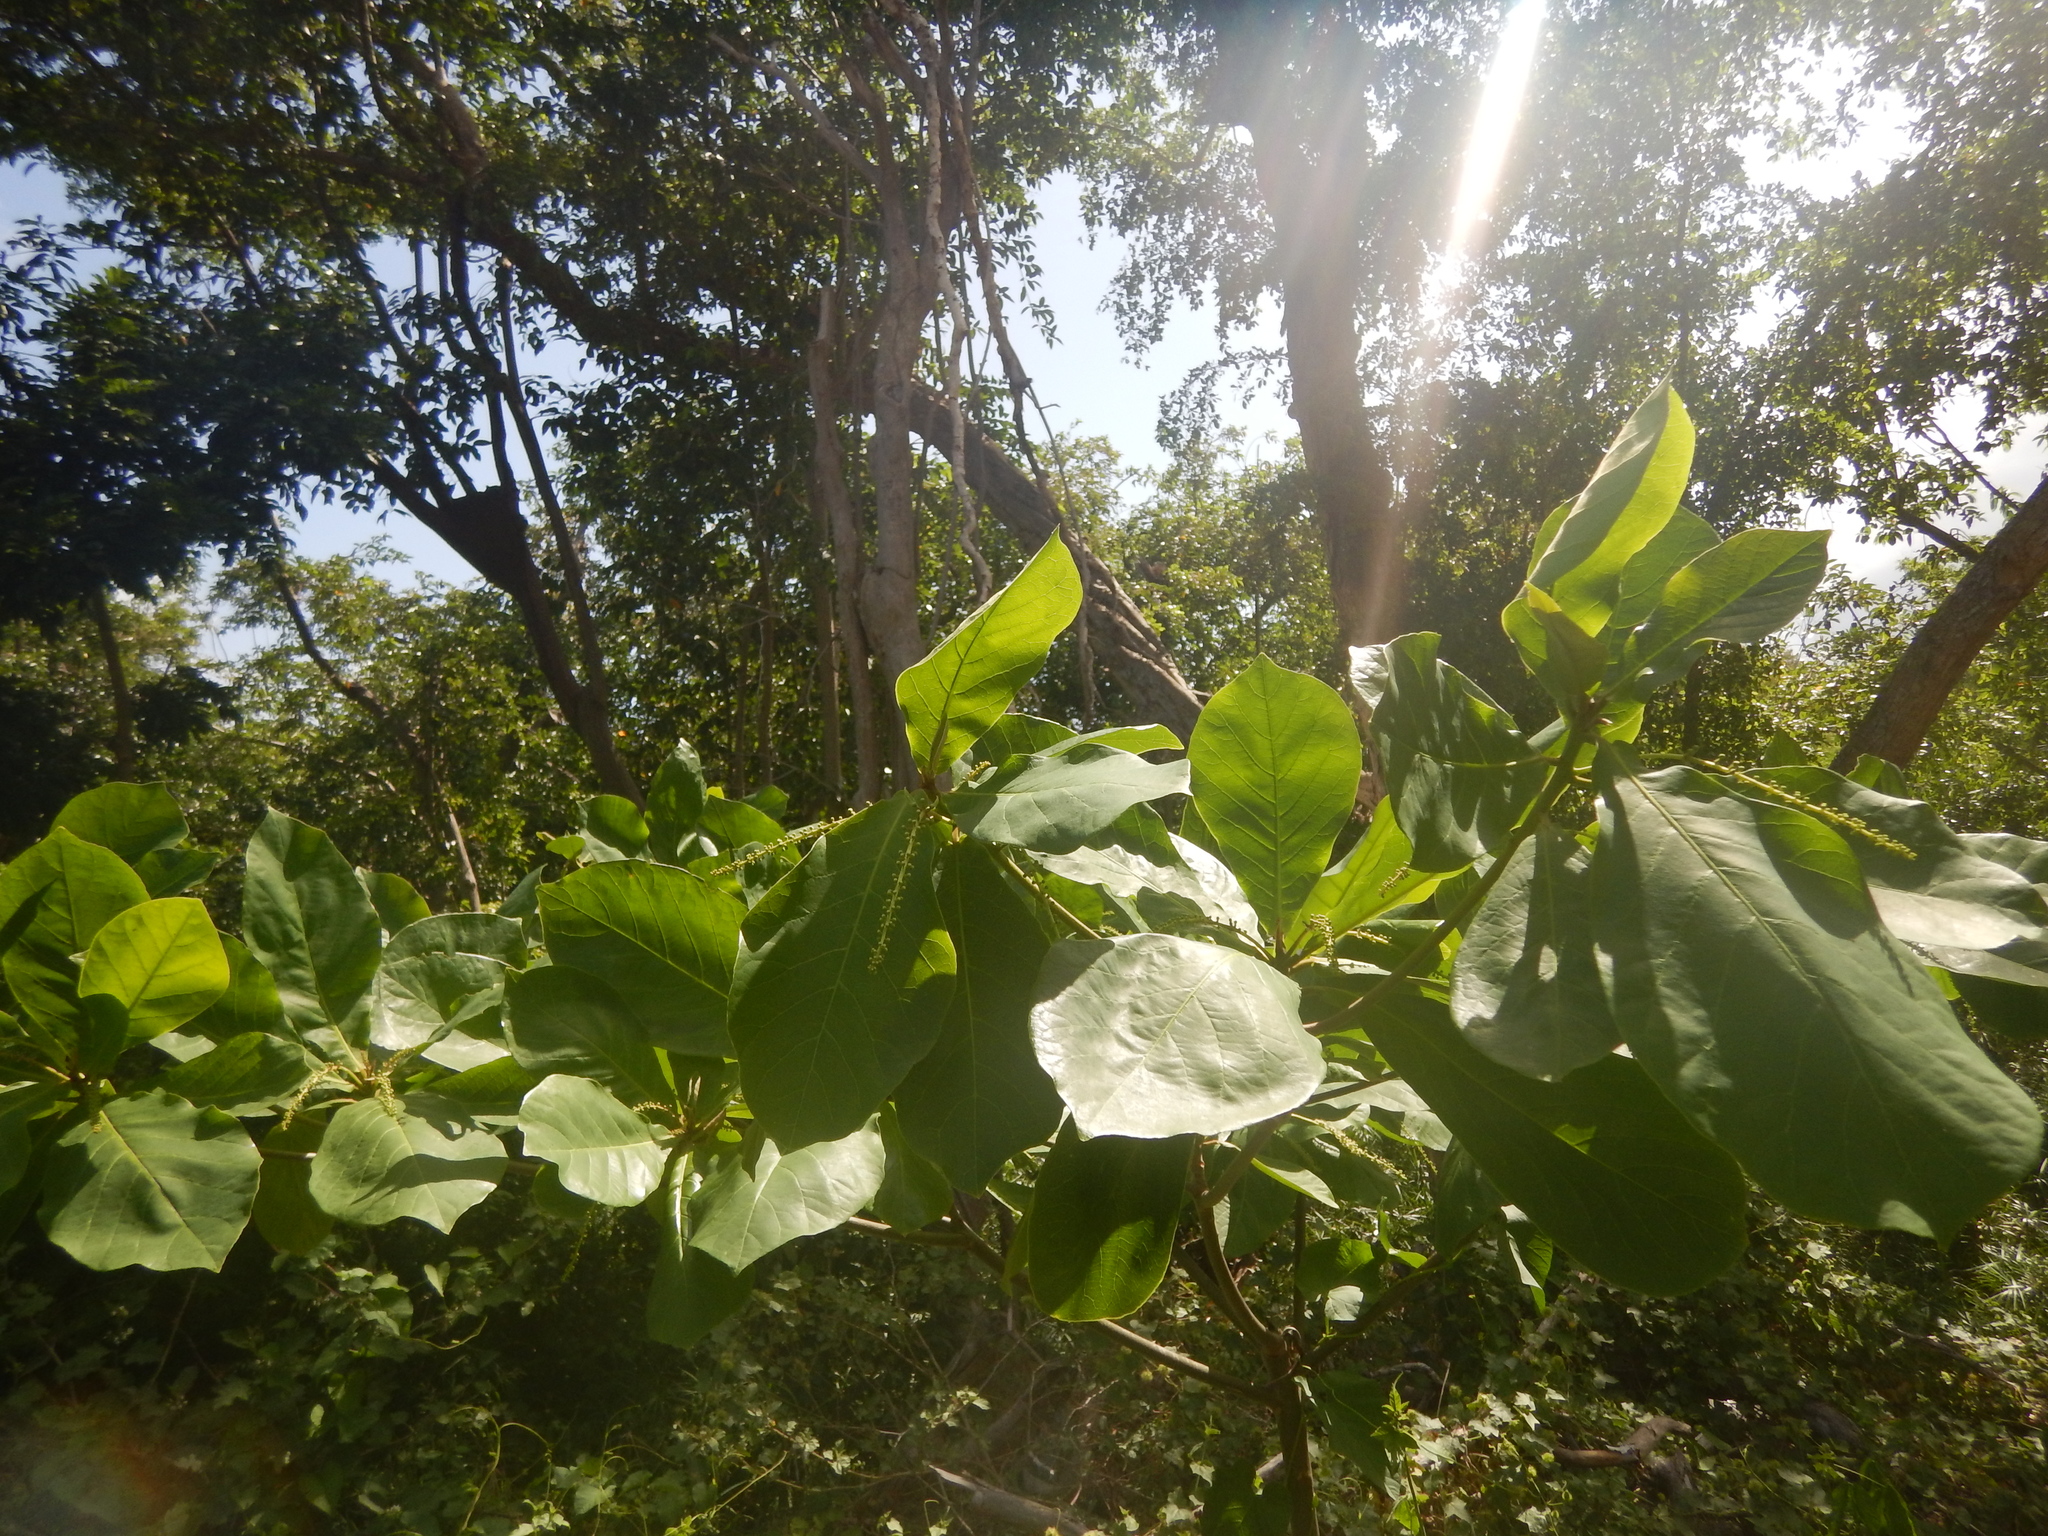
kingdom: Plantae
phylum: Tracheophyta
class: Magnoliopsida
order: Myrtales
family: Combretaceae
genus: Terminalia
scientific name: Terminalia catappa
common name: Tropical almond
